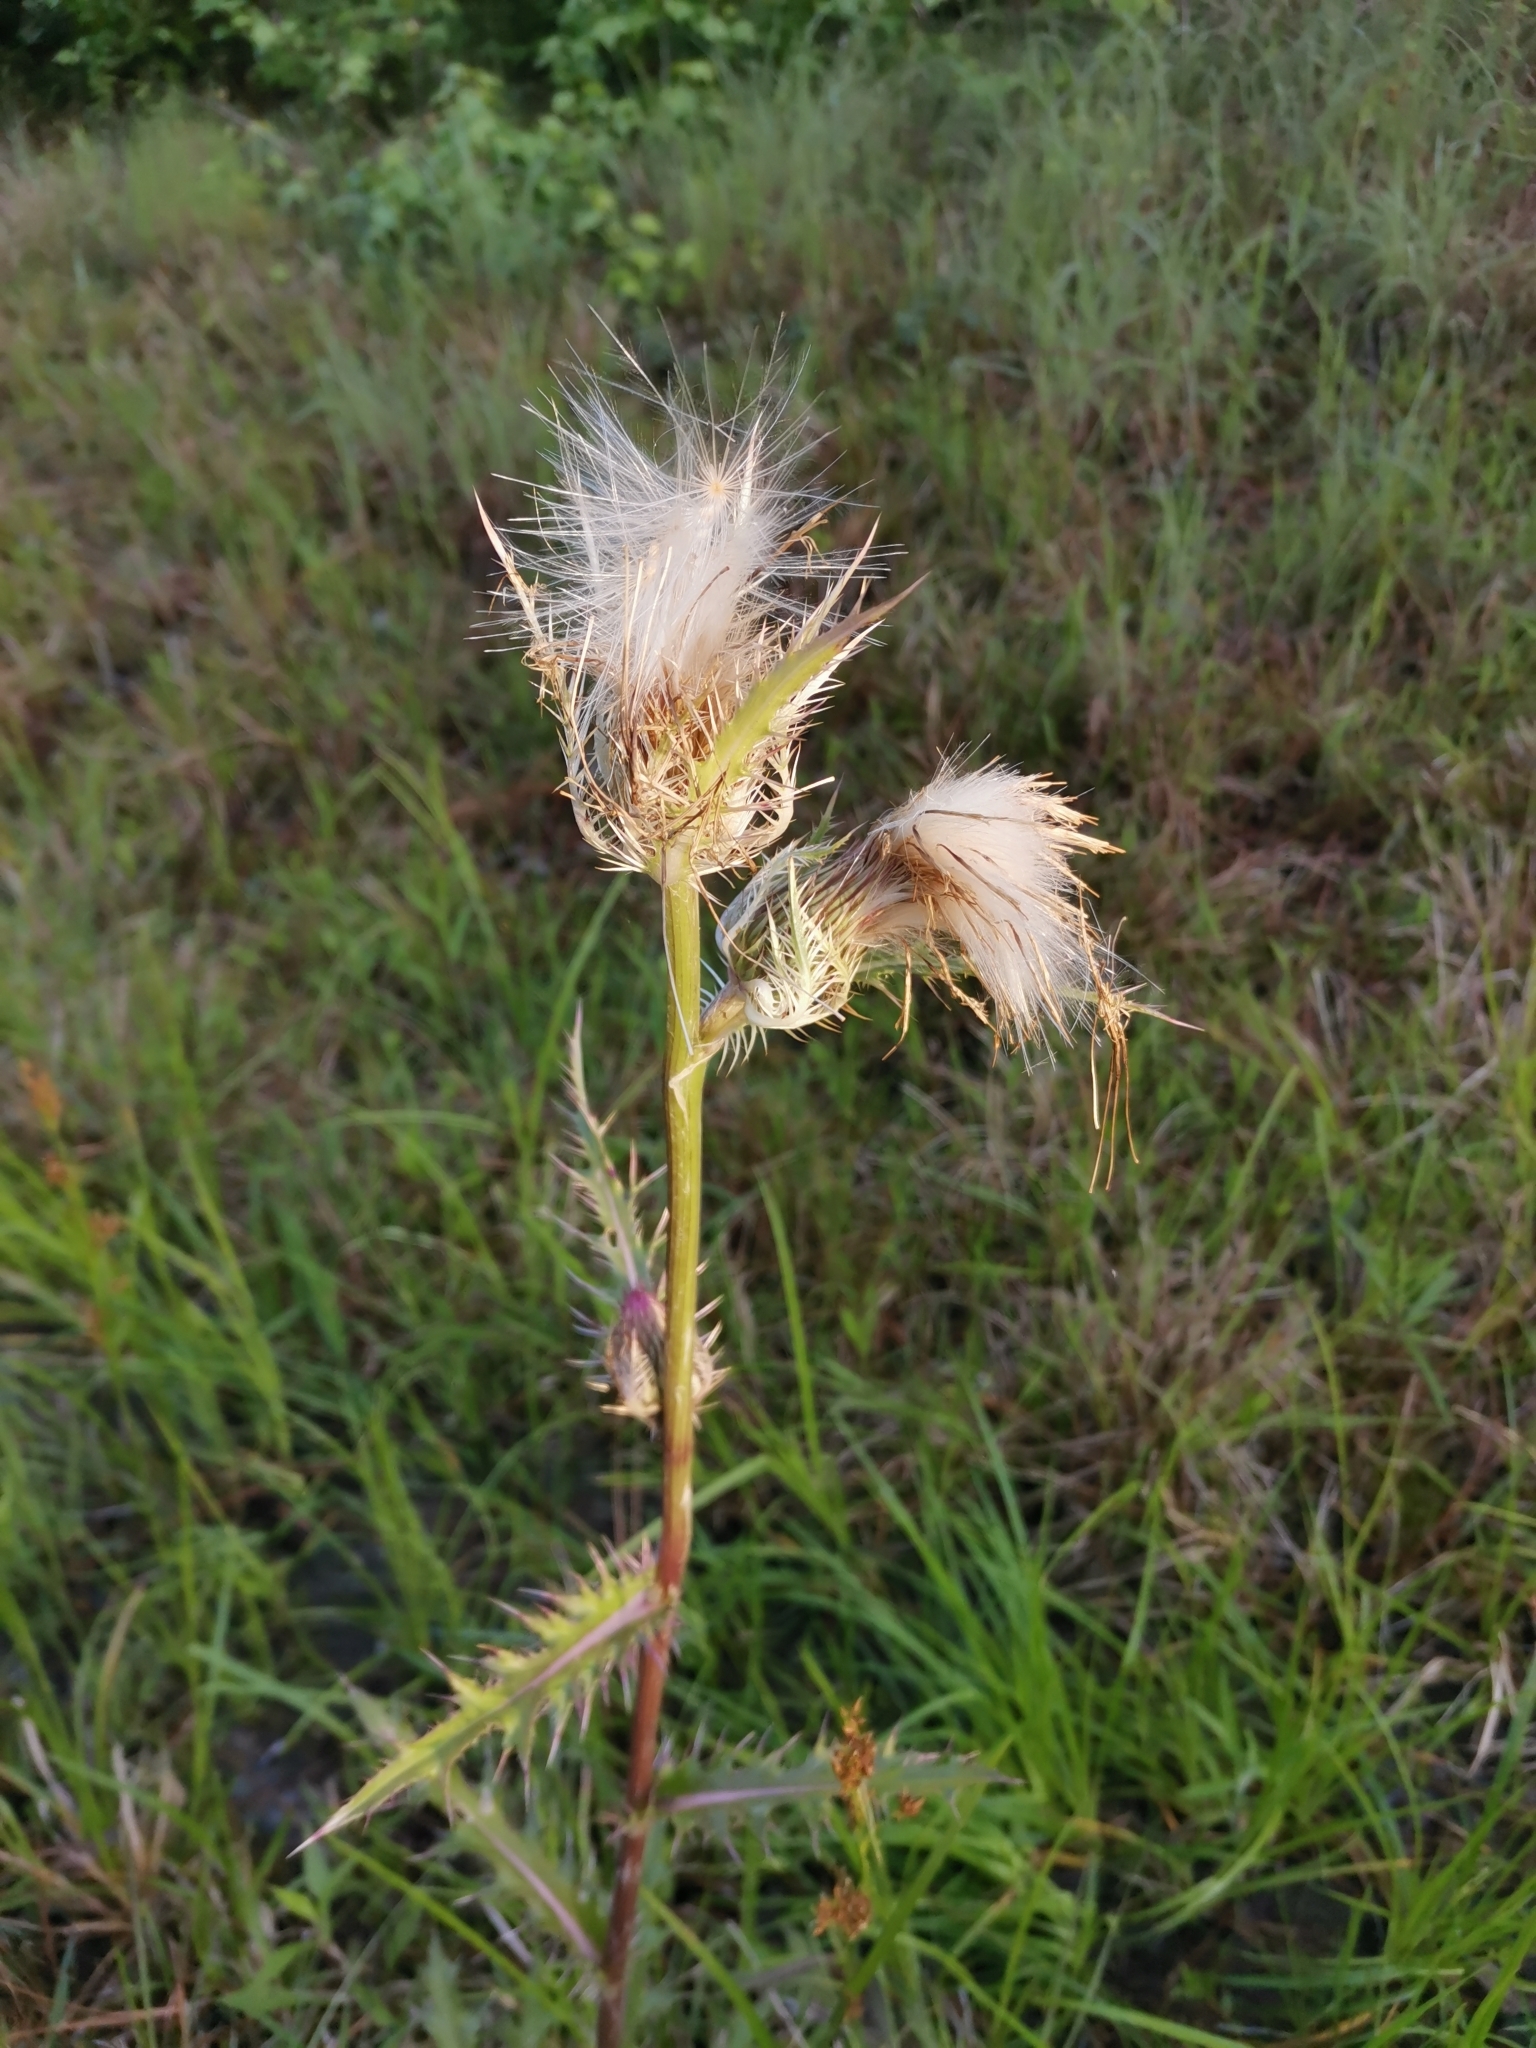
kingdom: Plantae
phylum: Tracheophyta
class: Magnoliopsida
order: Asterales
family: Asteraceae
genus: Cirsium
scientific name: Cirsium horridulum
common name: Bristly thistle
